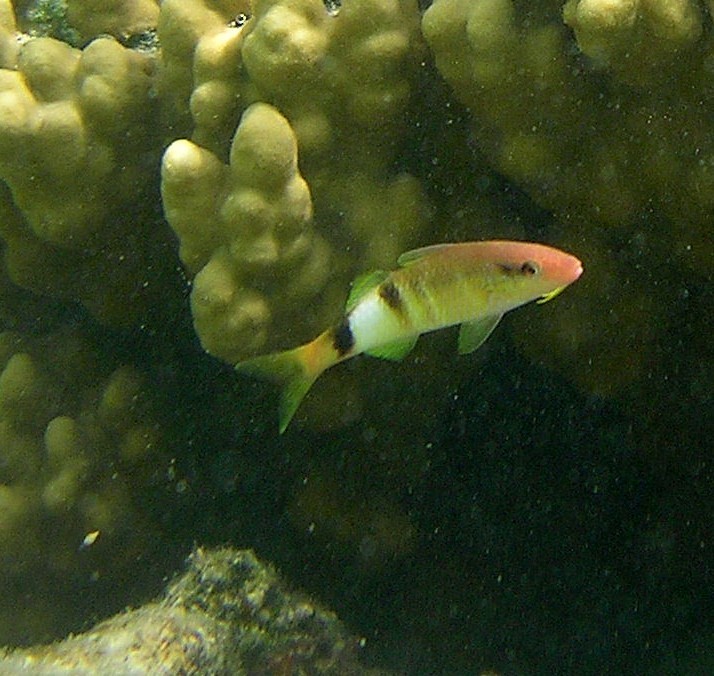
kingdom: Animalia
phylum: Chordata
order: Perciformes
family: Mullidae
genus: Parupeneus
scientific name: Parupeneus multifasciatus
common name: Manybar goatfish
